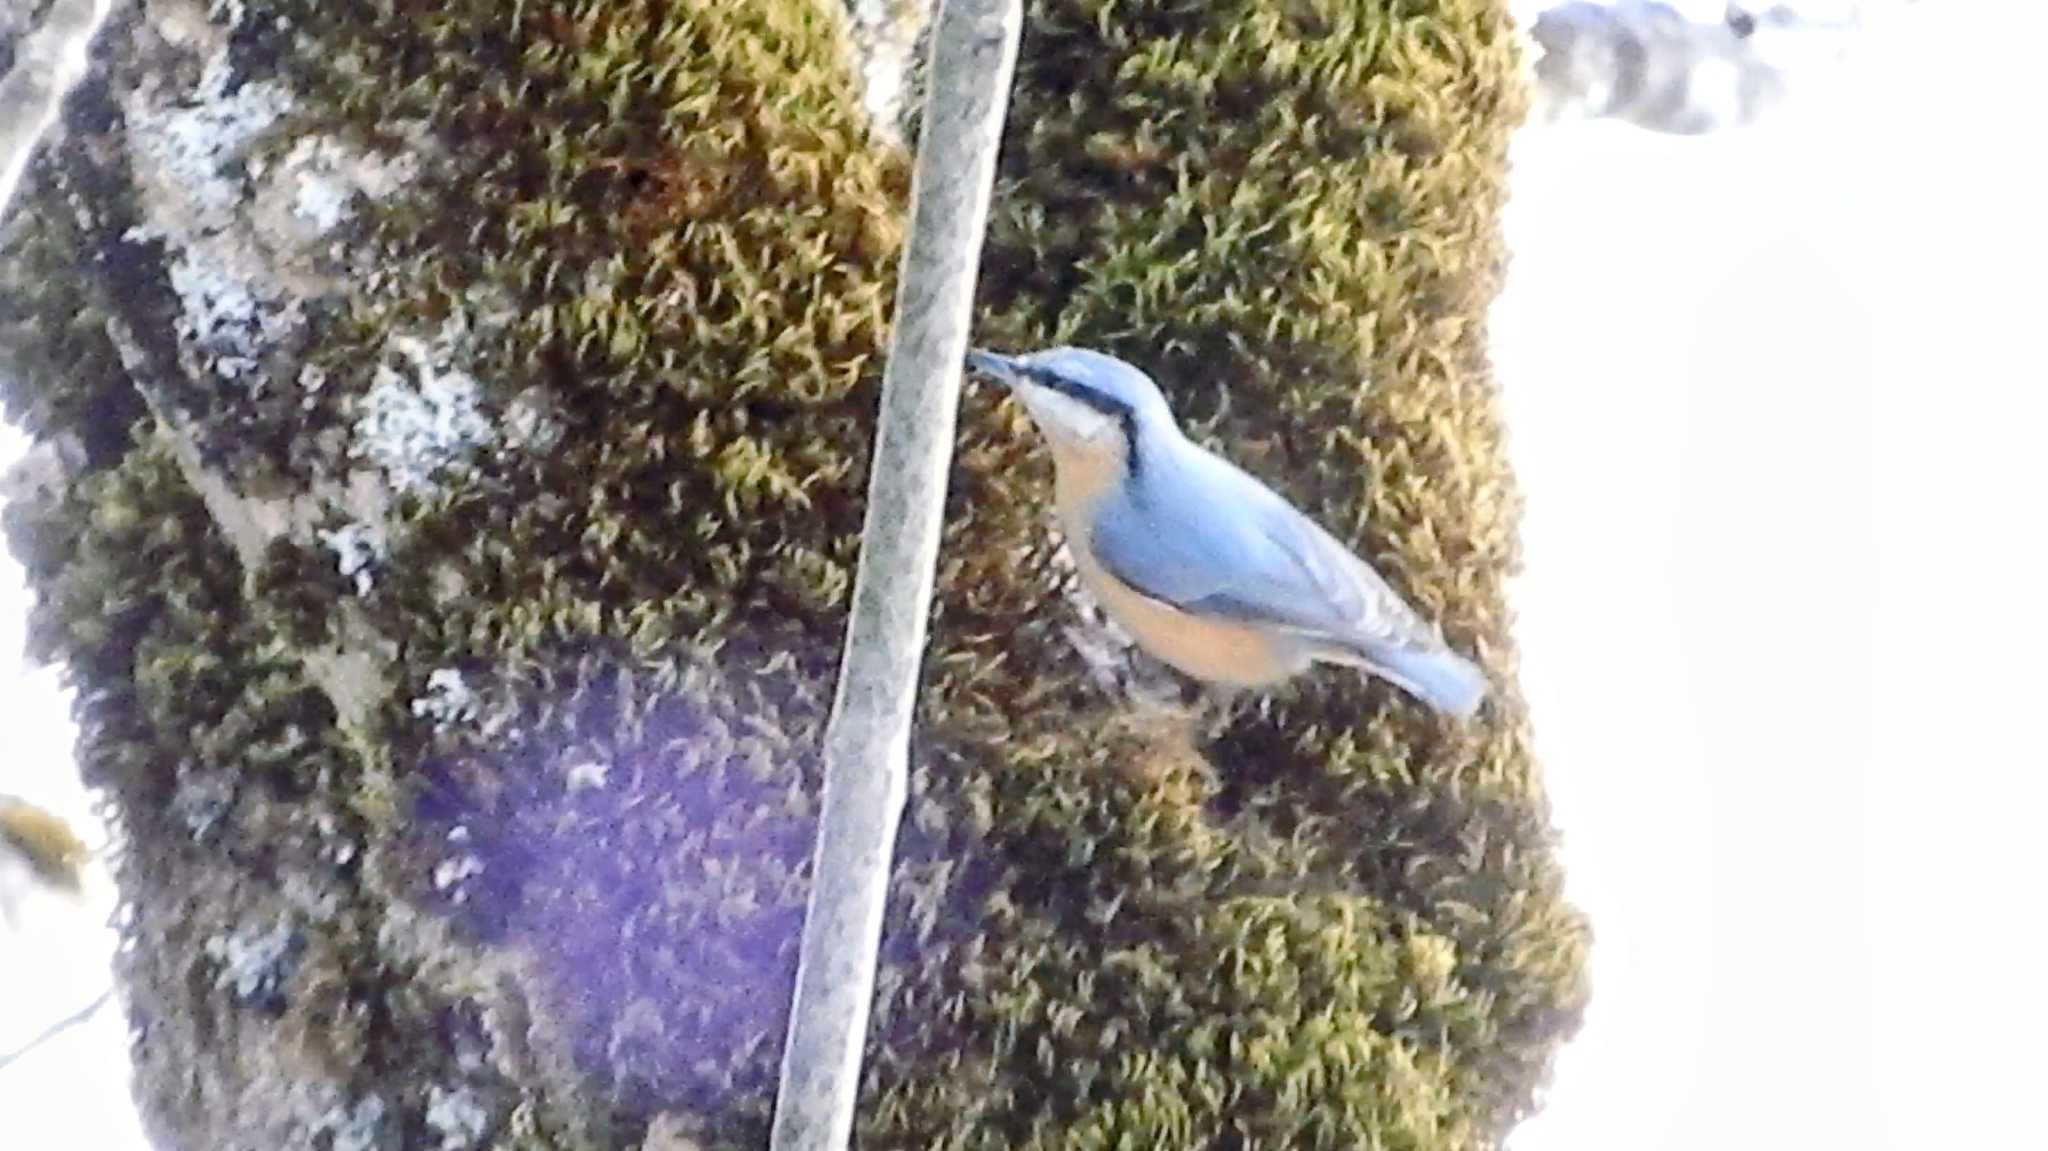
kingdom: Animalia
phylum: Chordata
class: Aves
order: Passeriformes
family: Sittidae
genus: Sitta
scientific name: Sitta europaea
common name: Eurasian nuthatch
